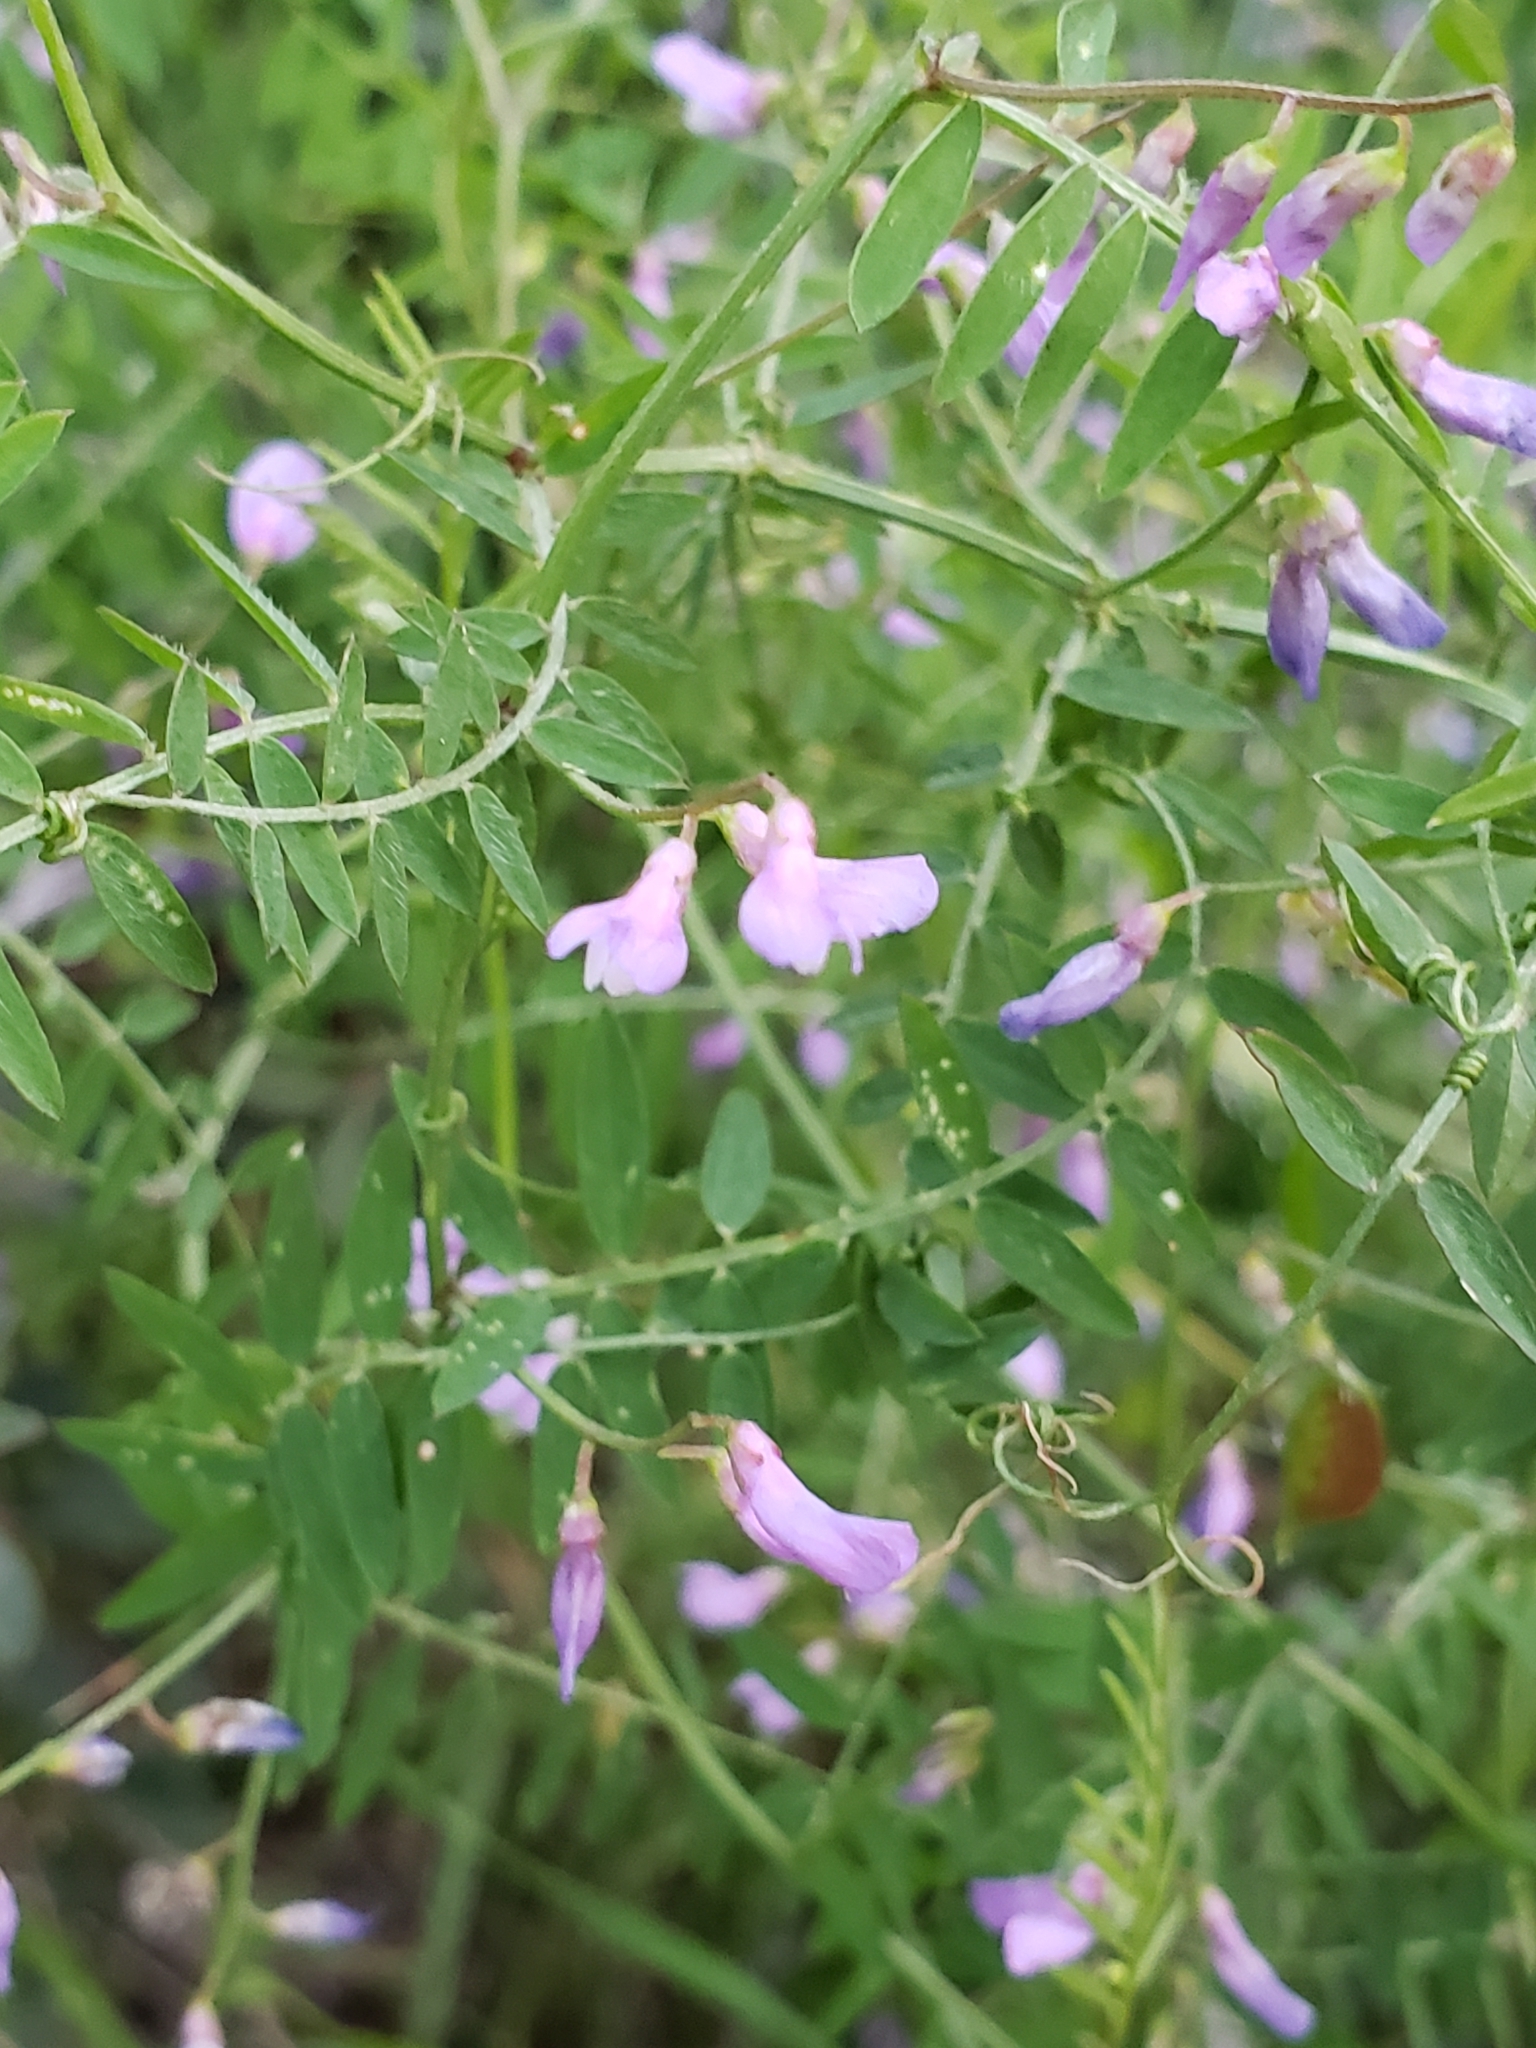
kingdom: Plantae
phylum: Tracheophyta
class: Magnoliopsida
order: Fabales
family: Fabaceae
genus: Vicia
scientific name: Vicia palaestina
